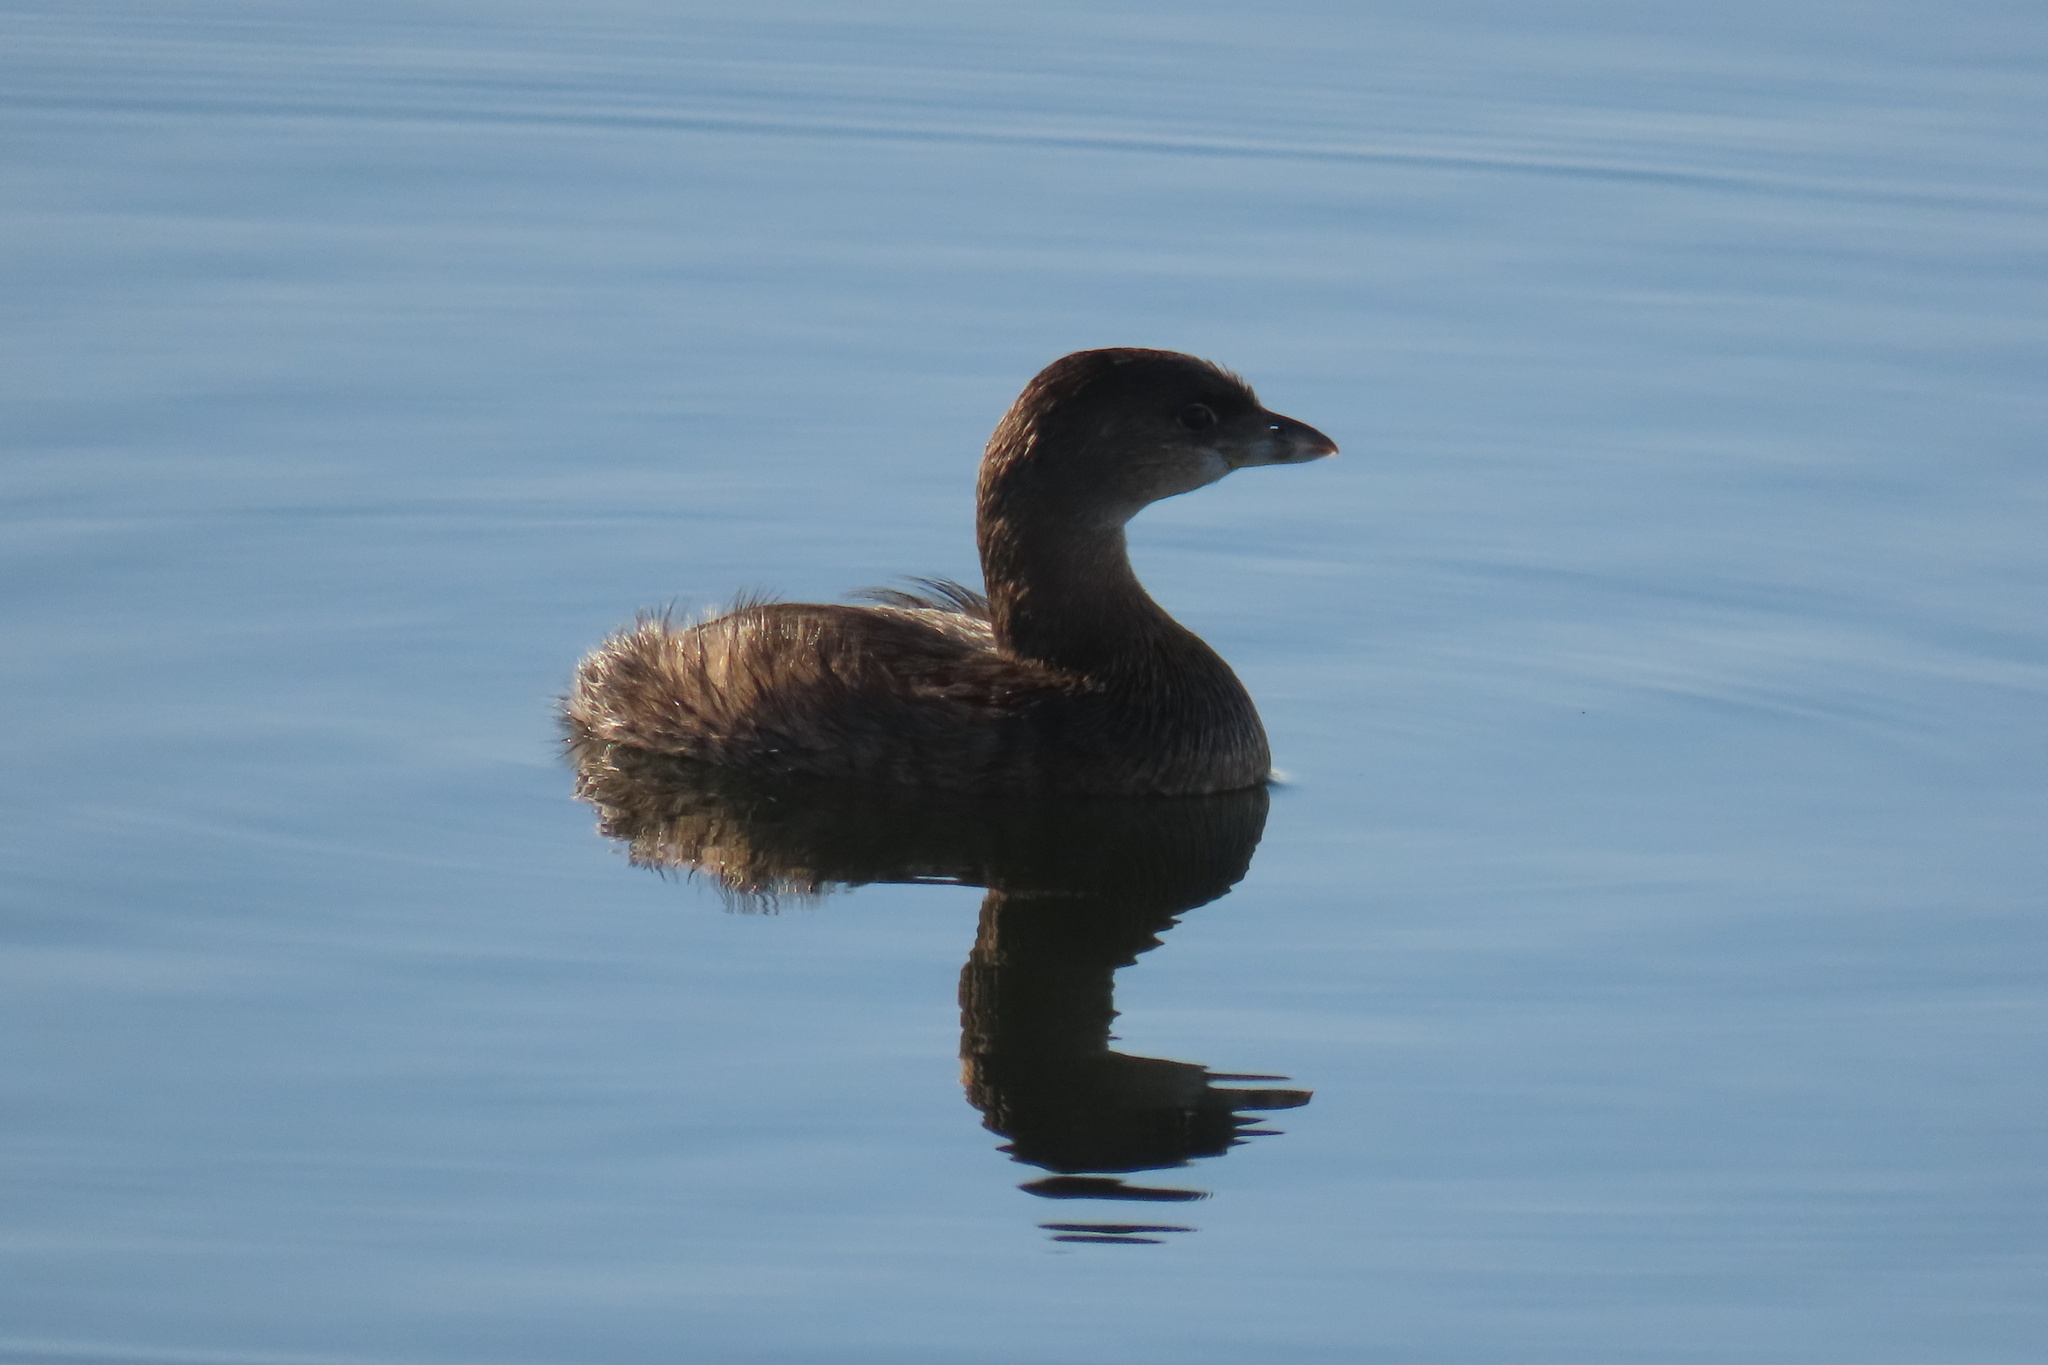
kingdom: Animalia
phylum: Chordata
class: Aves
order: Podicipediformes
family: Podicipedidae
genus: Podilymbus
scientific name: Podilymbus podiceps
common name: Pied-billed grebe
